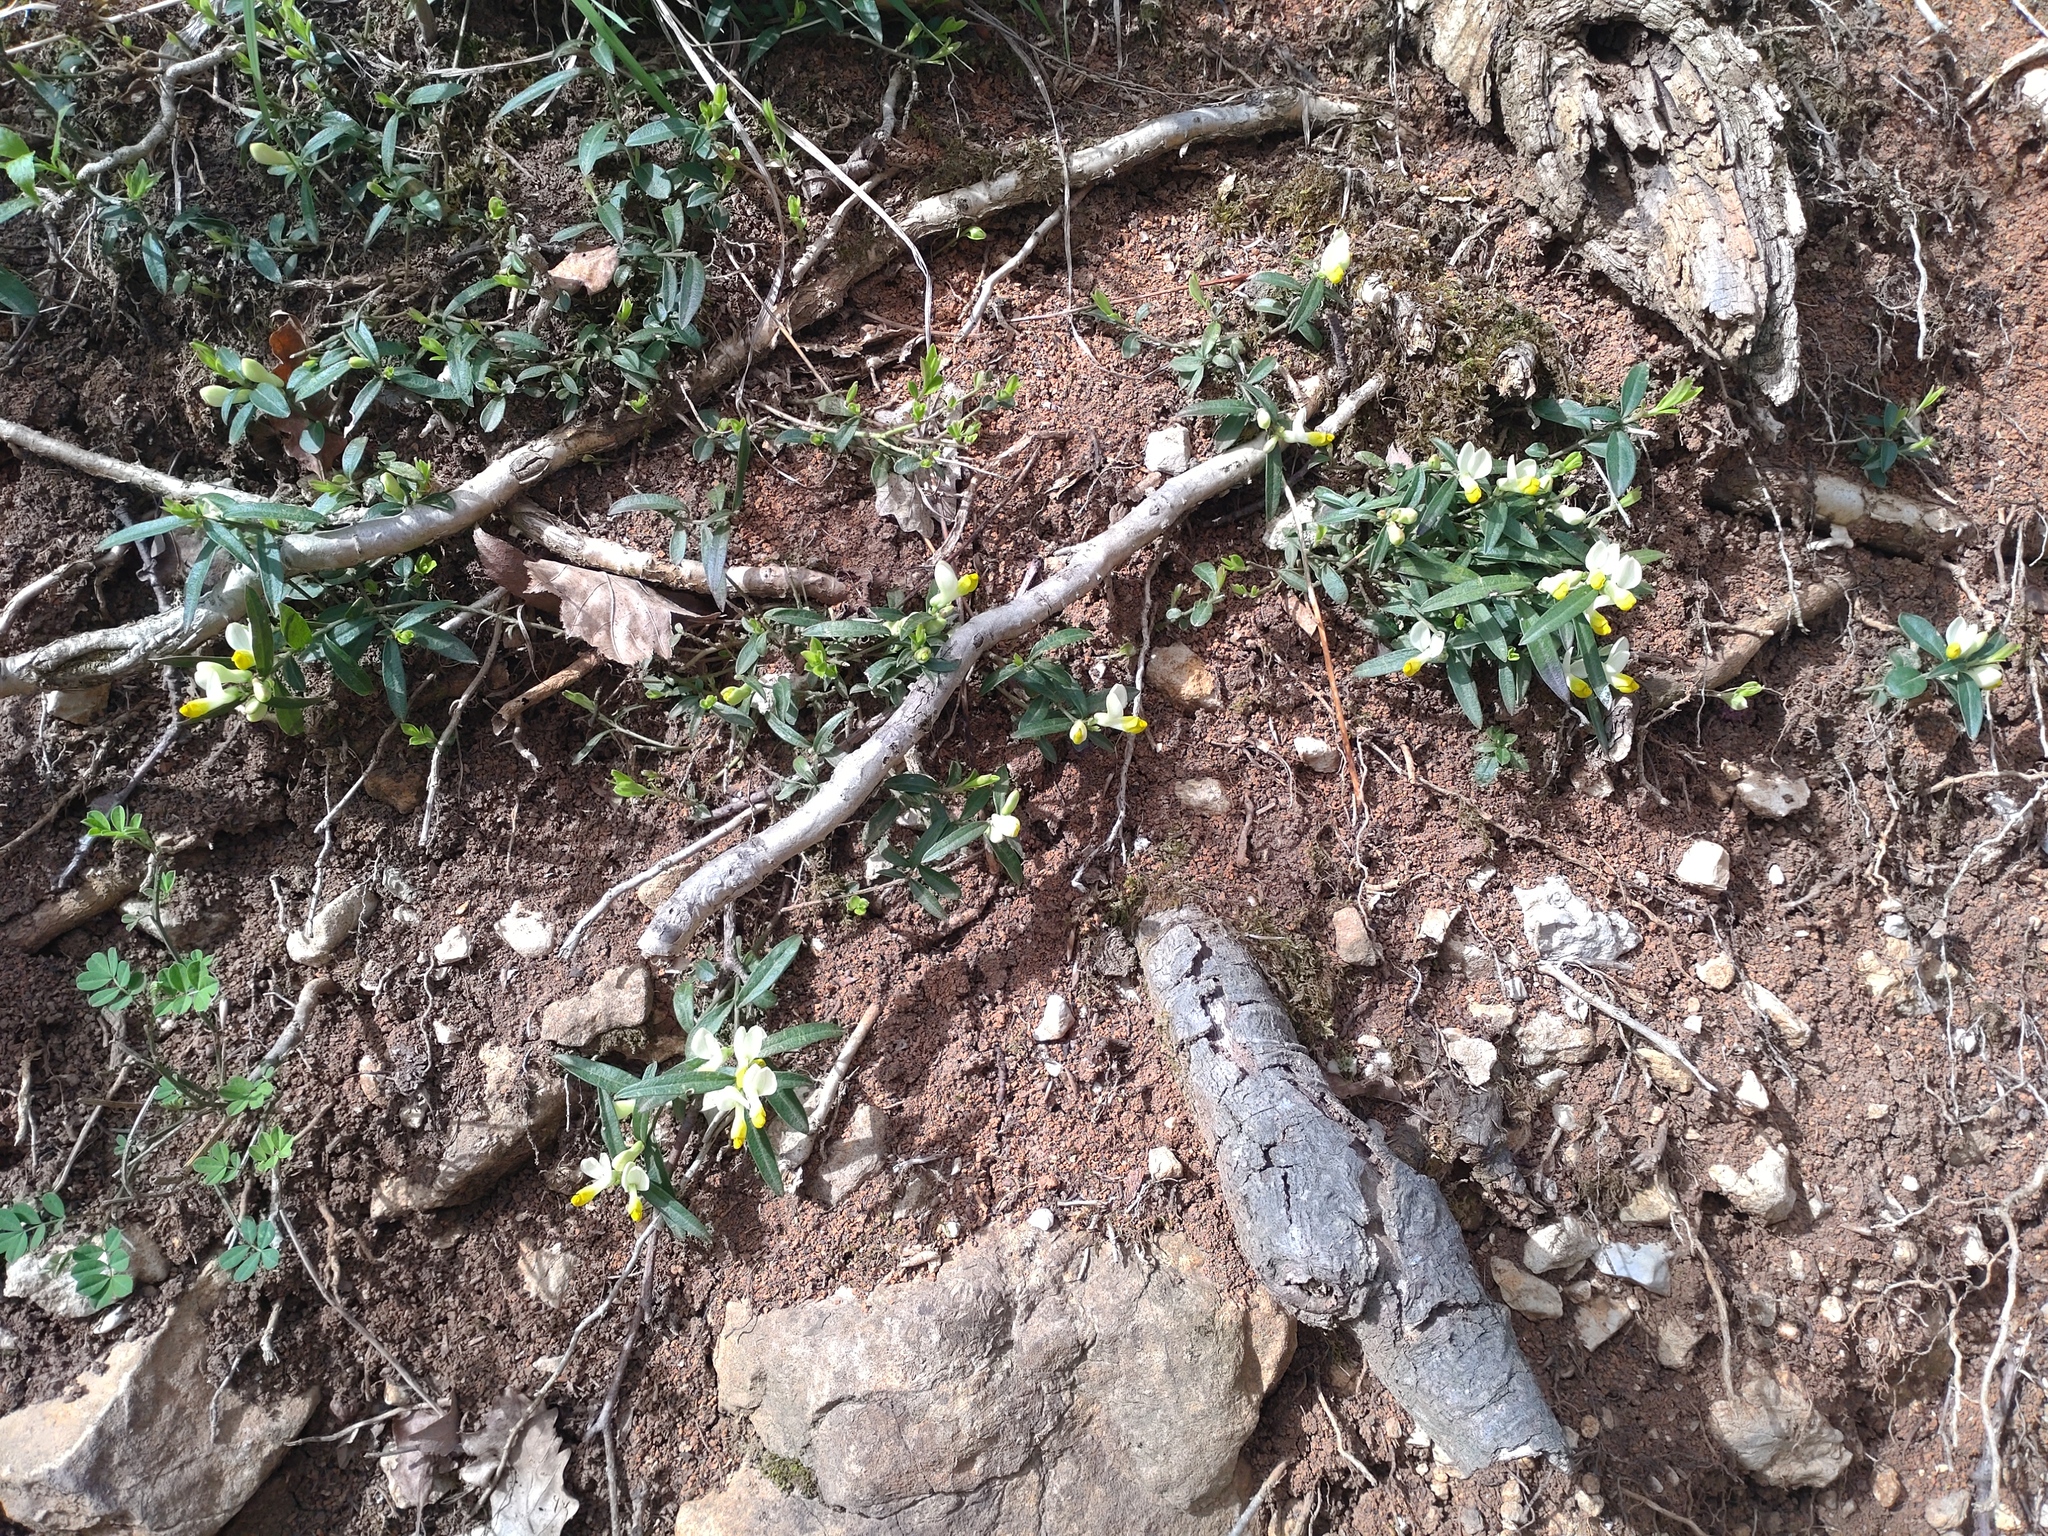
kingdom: Plantae
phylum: Tracheophyta
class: Magnoliopsida
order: Fabales
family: Polygalaceae
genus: Polygaloides
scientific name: Polygaloides chamaebuxus
